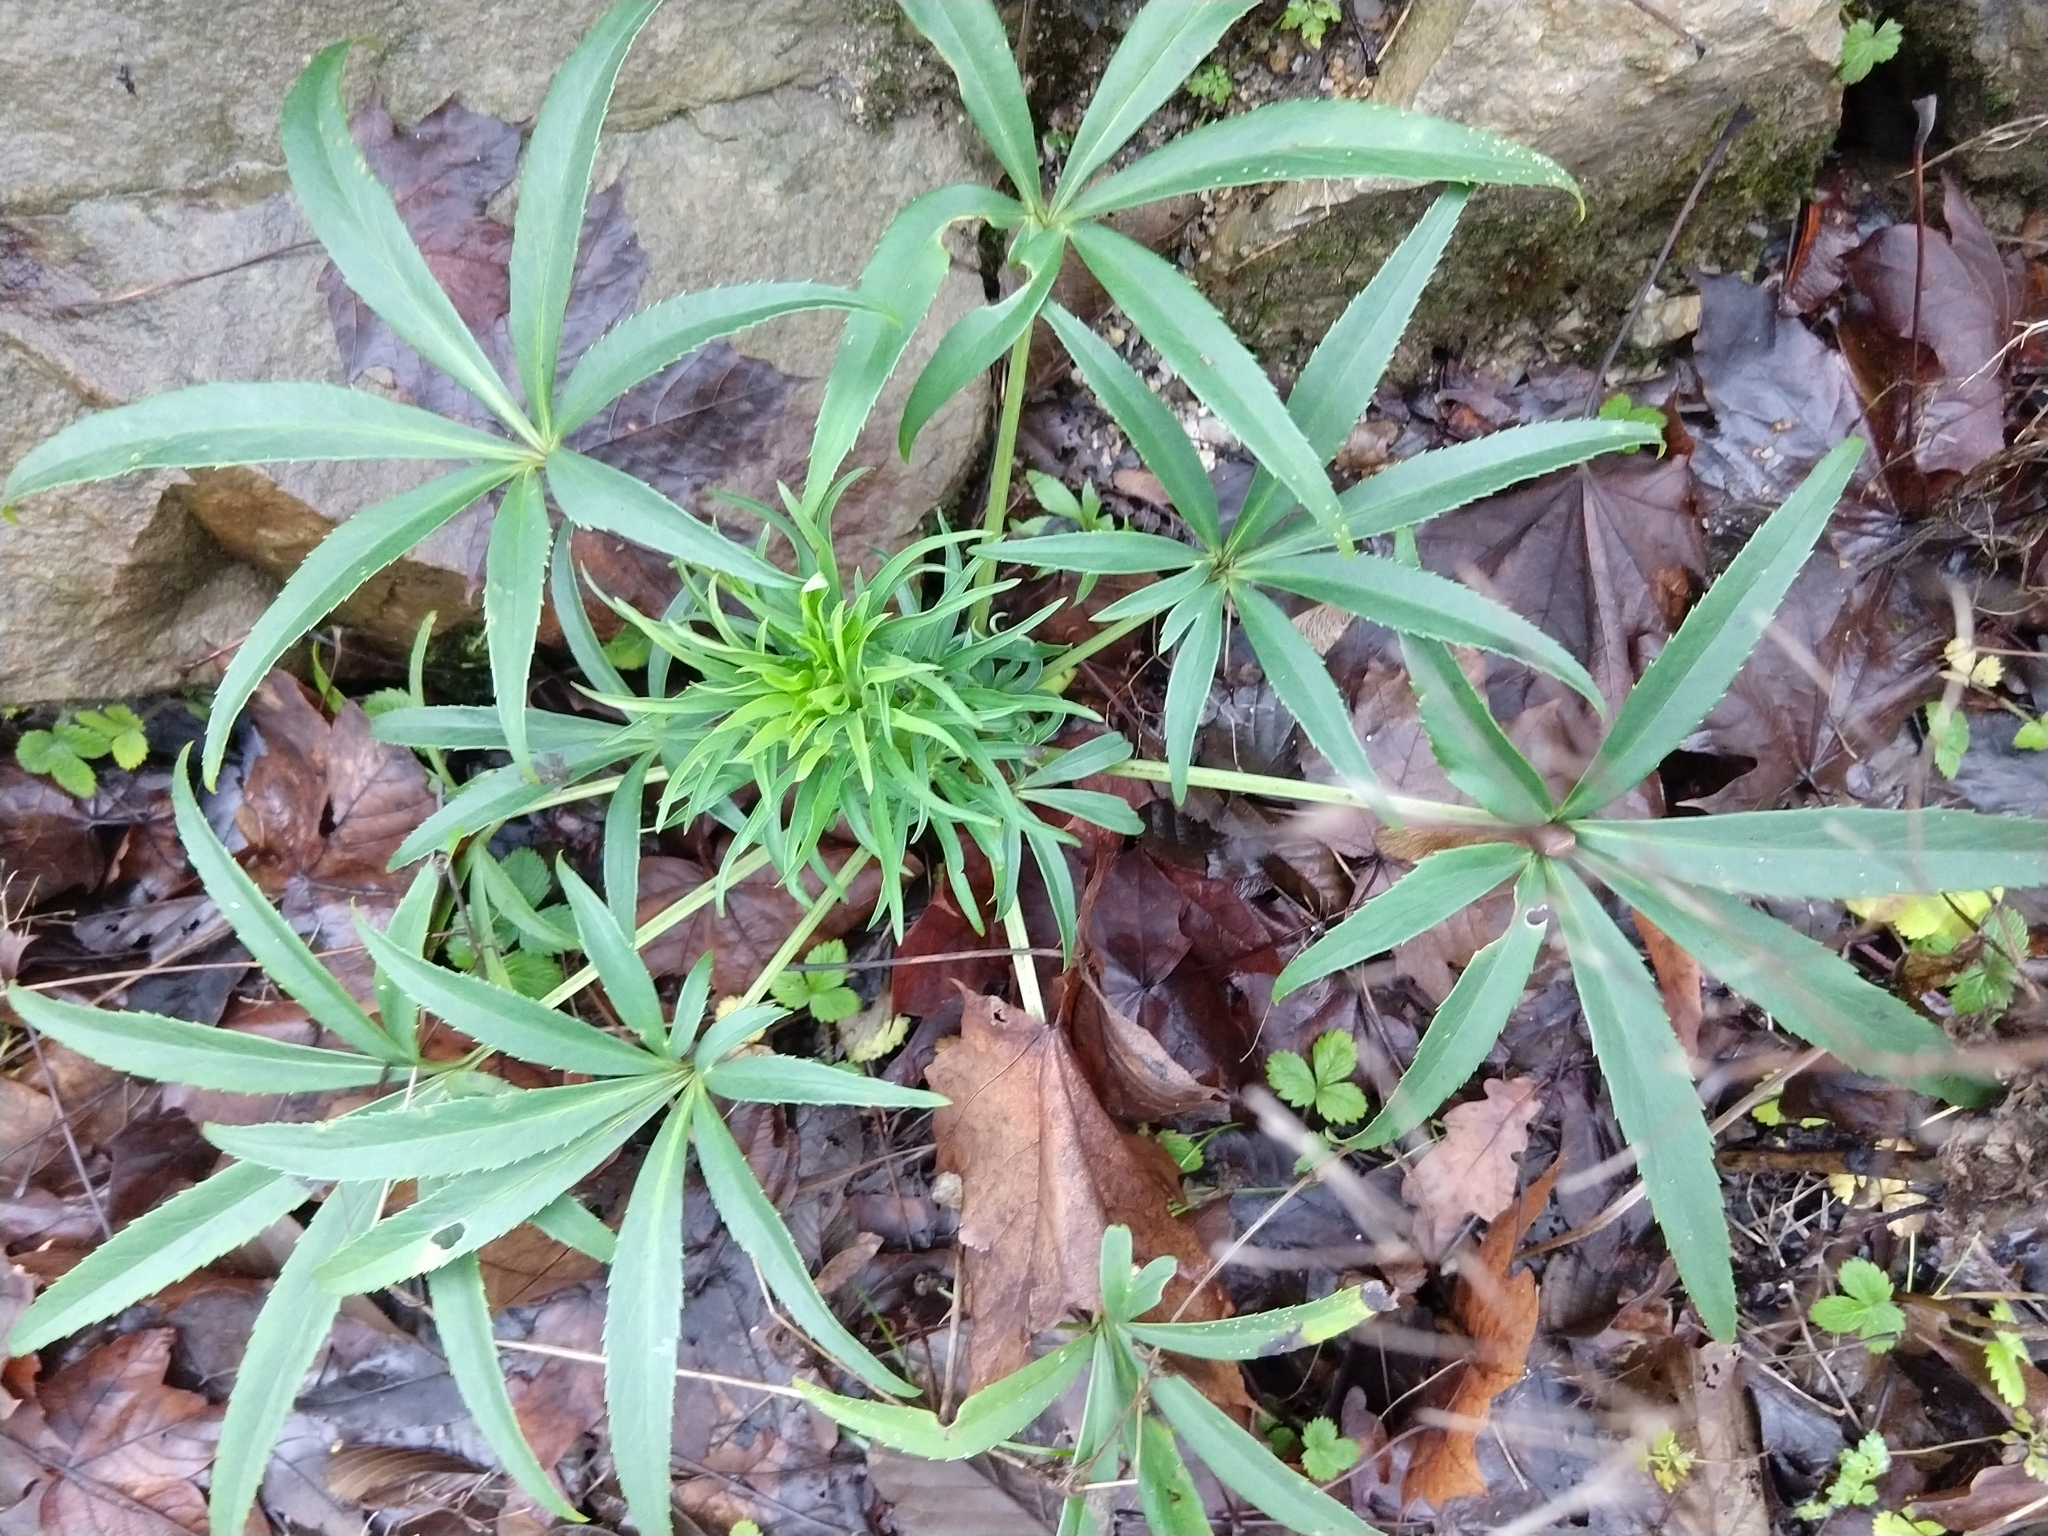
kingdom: Plantae
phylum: Tracheophyta
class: Magnoliopsida
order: Ranunculales
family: Ranunculaceae
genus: Helleborus
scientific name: Helleborus foetidus
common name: Stinking hellebore
